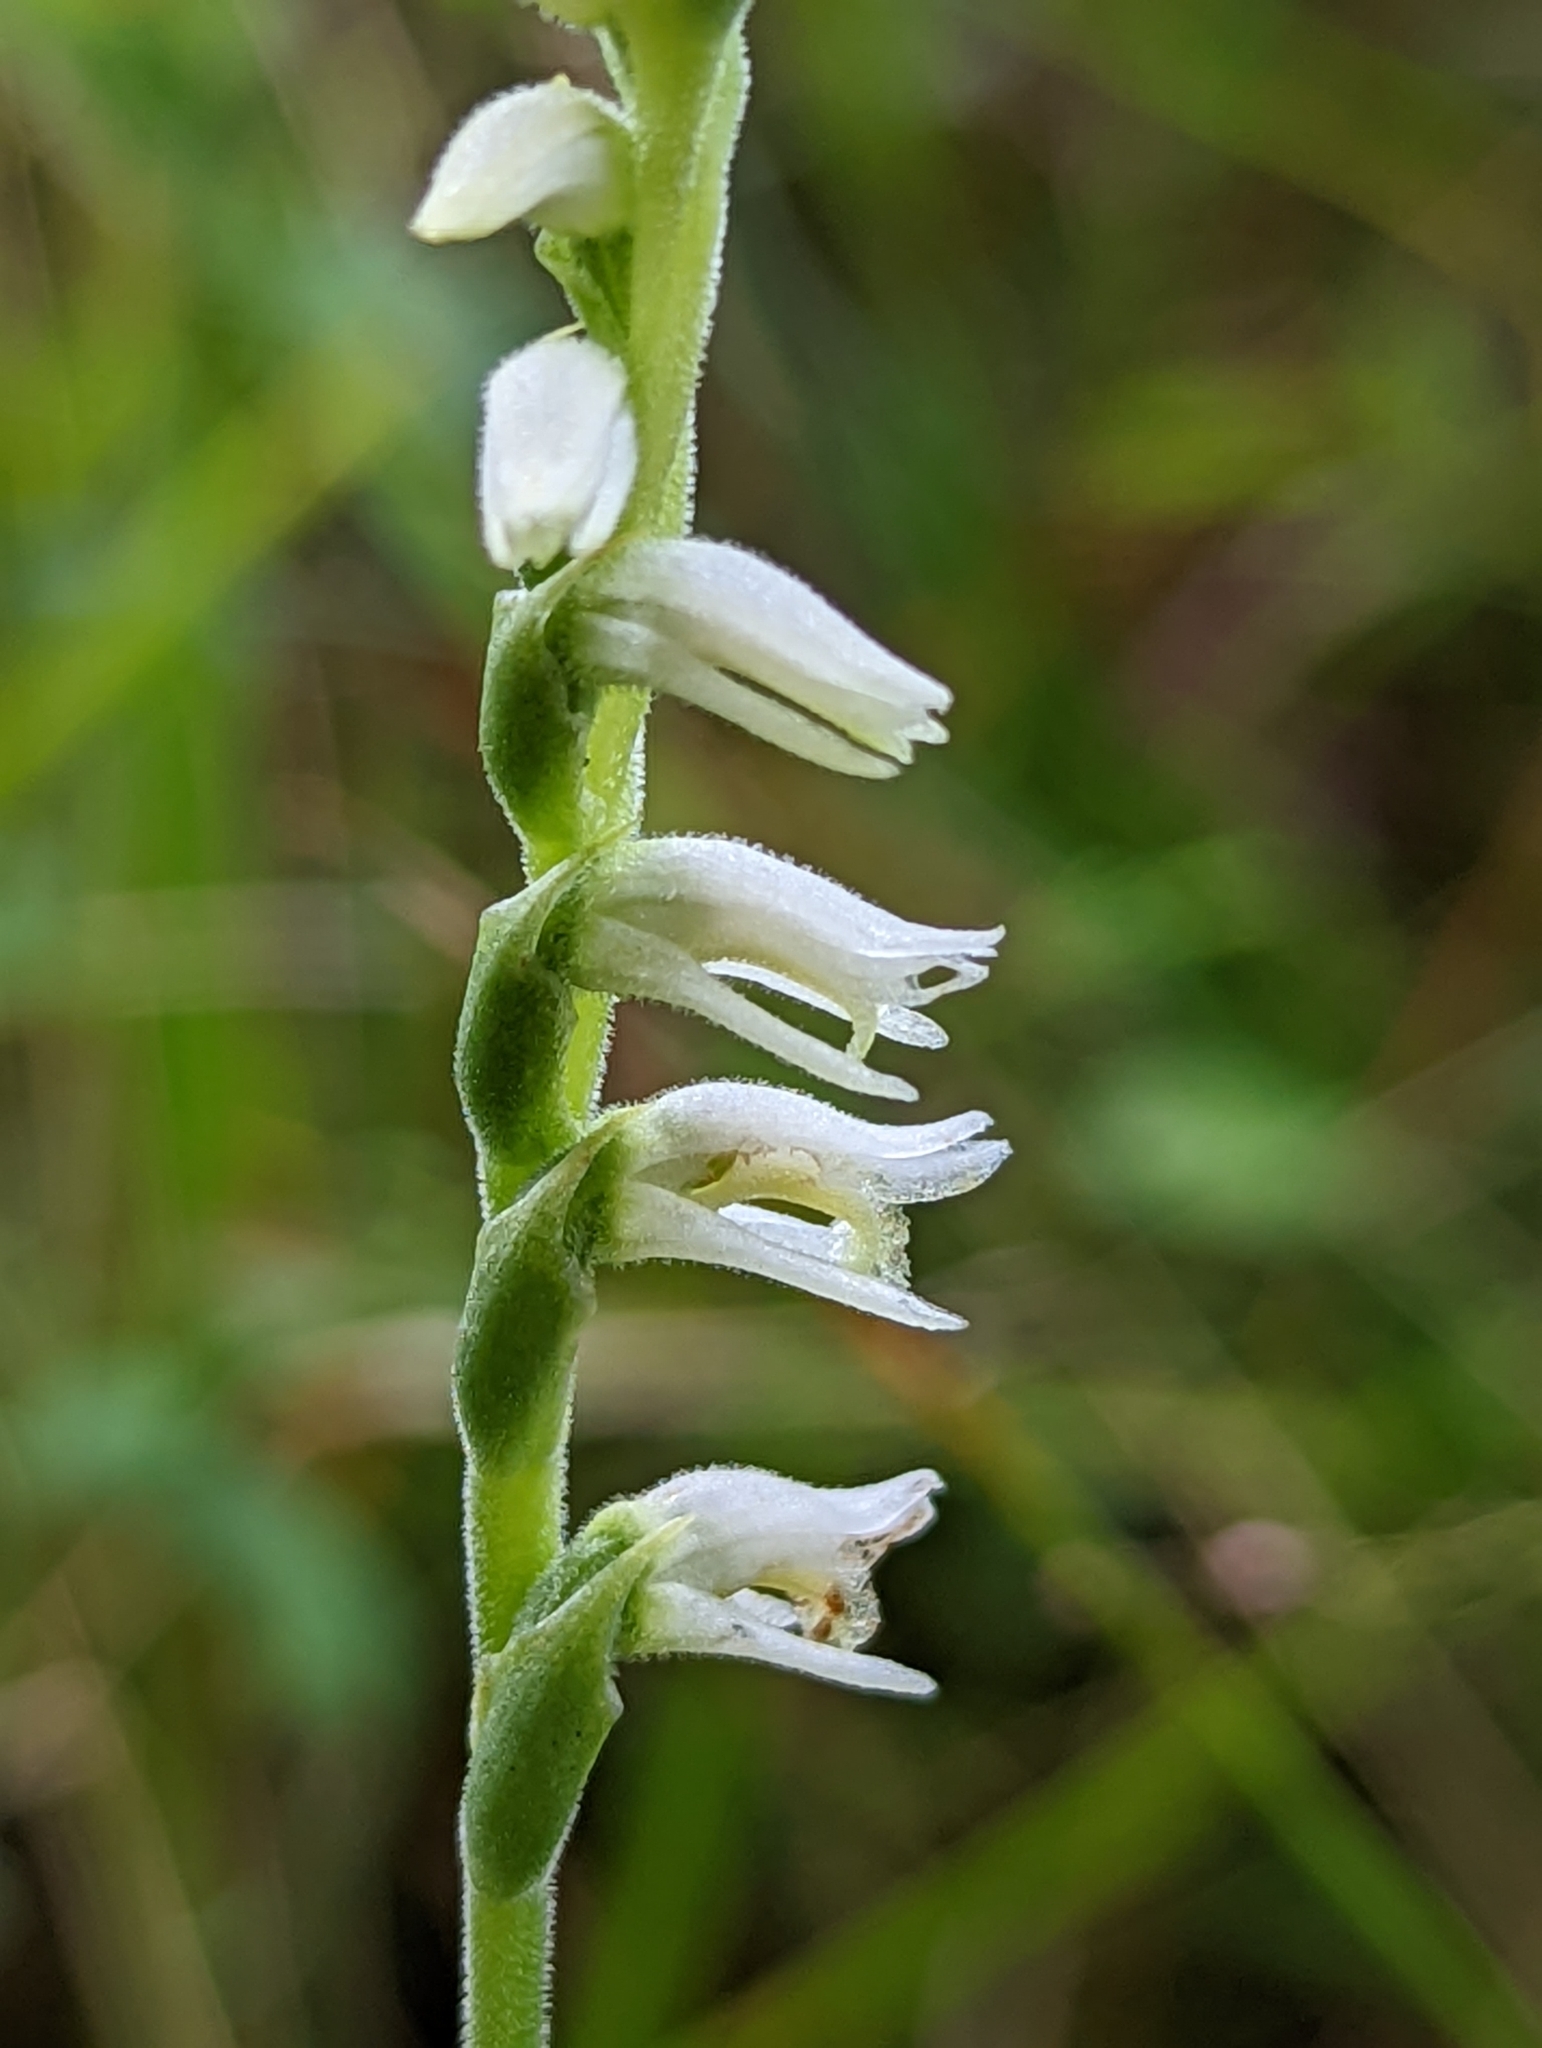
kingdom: Plantae
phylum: Tracheophyta
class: Liliopsida
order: Asparagales
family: Orchidaceae
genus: Spiranthes
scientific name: Spiranthes vernalis
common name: Spring ladies'-tresses
